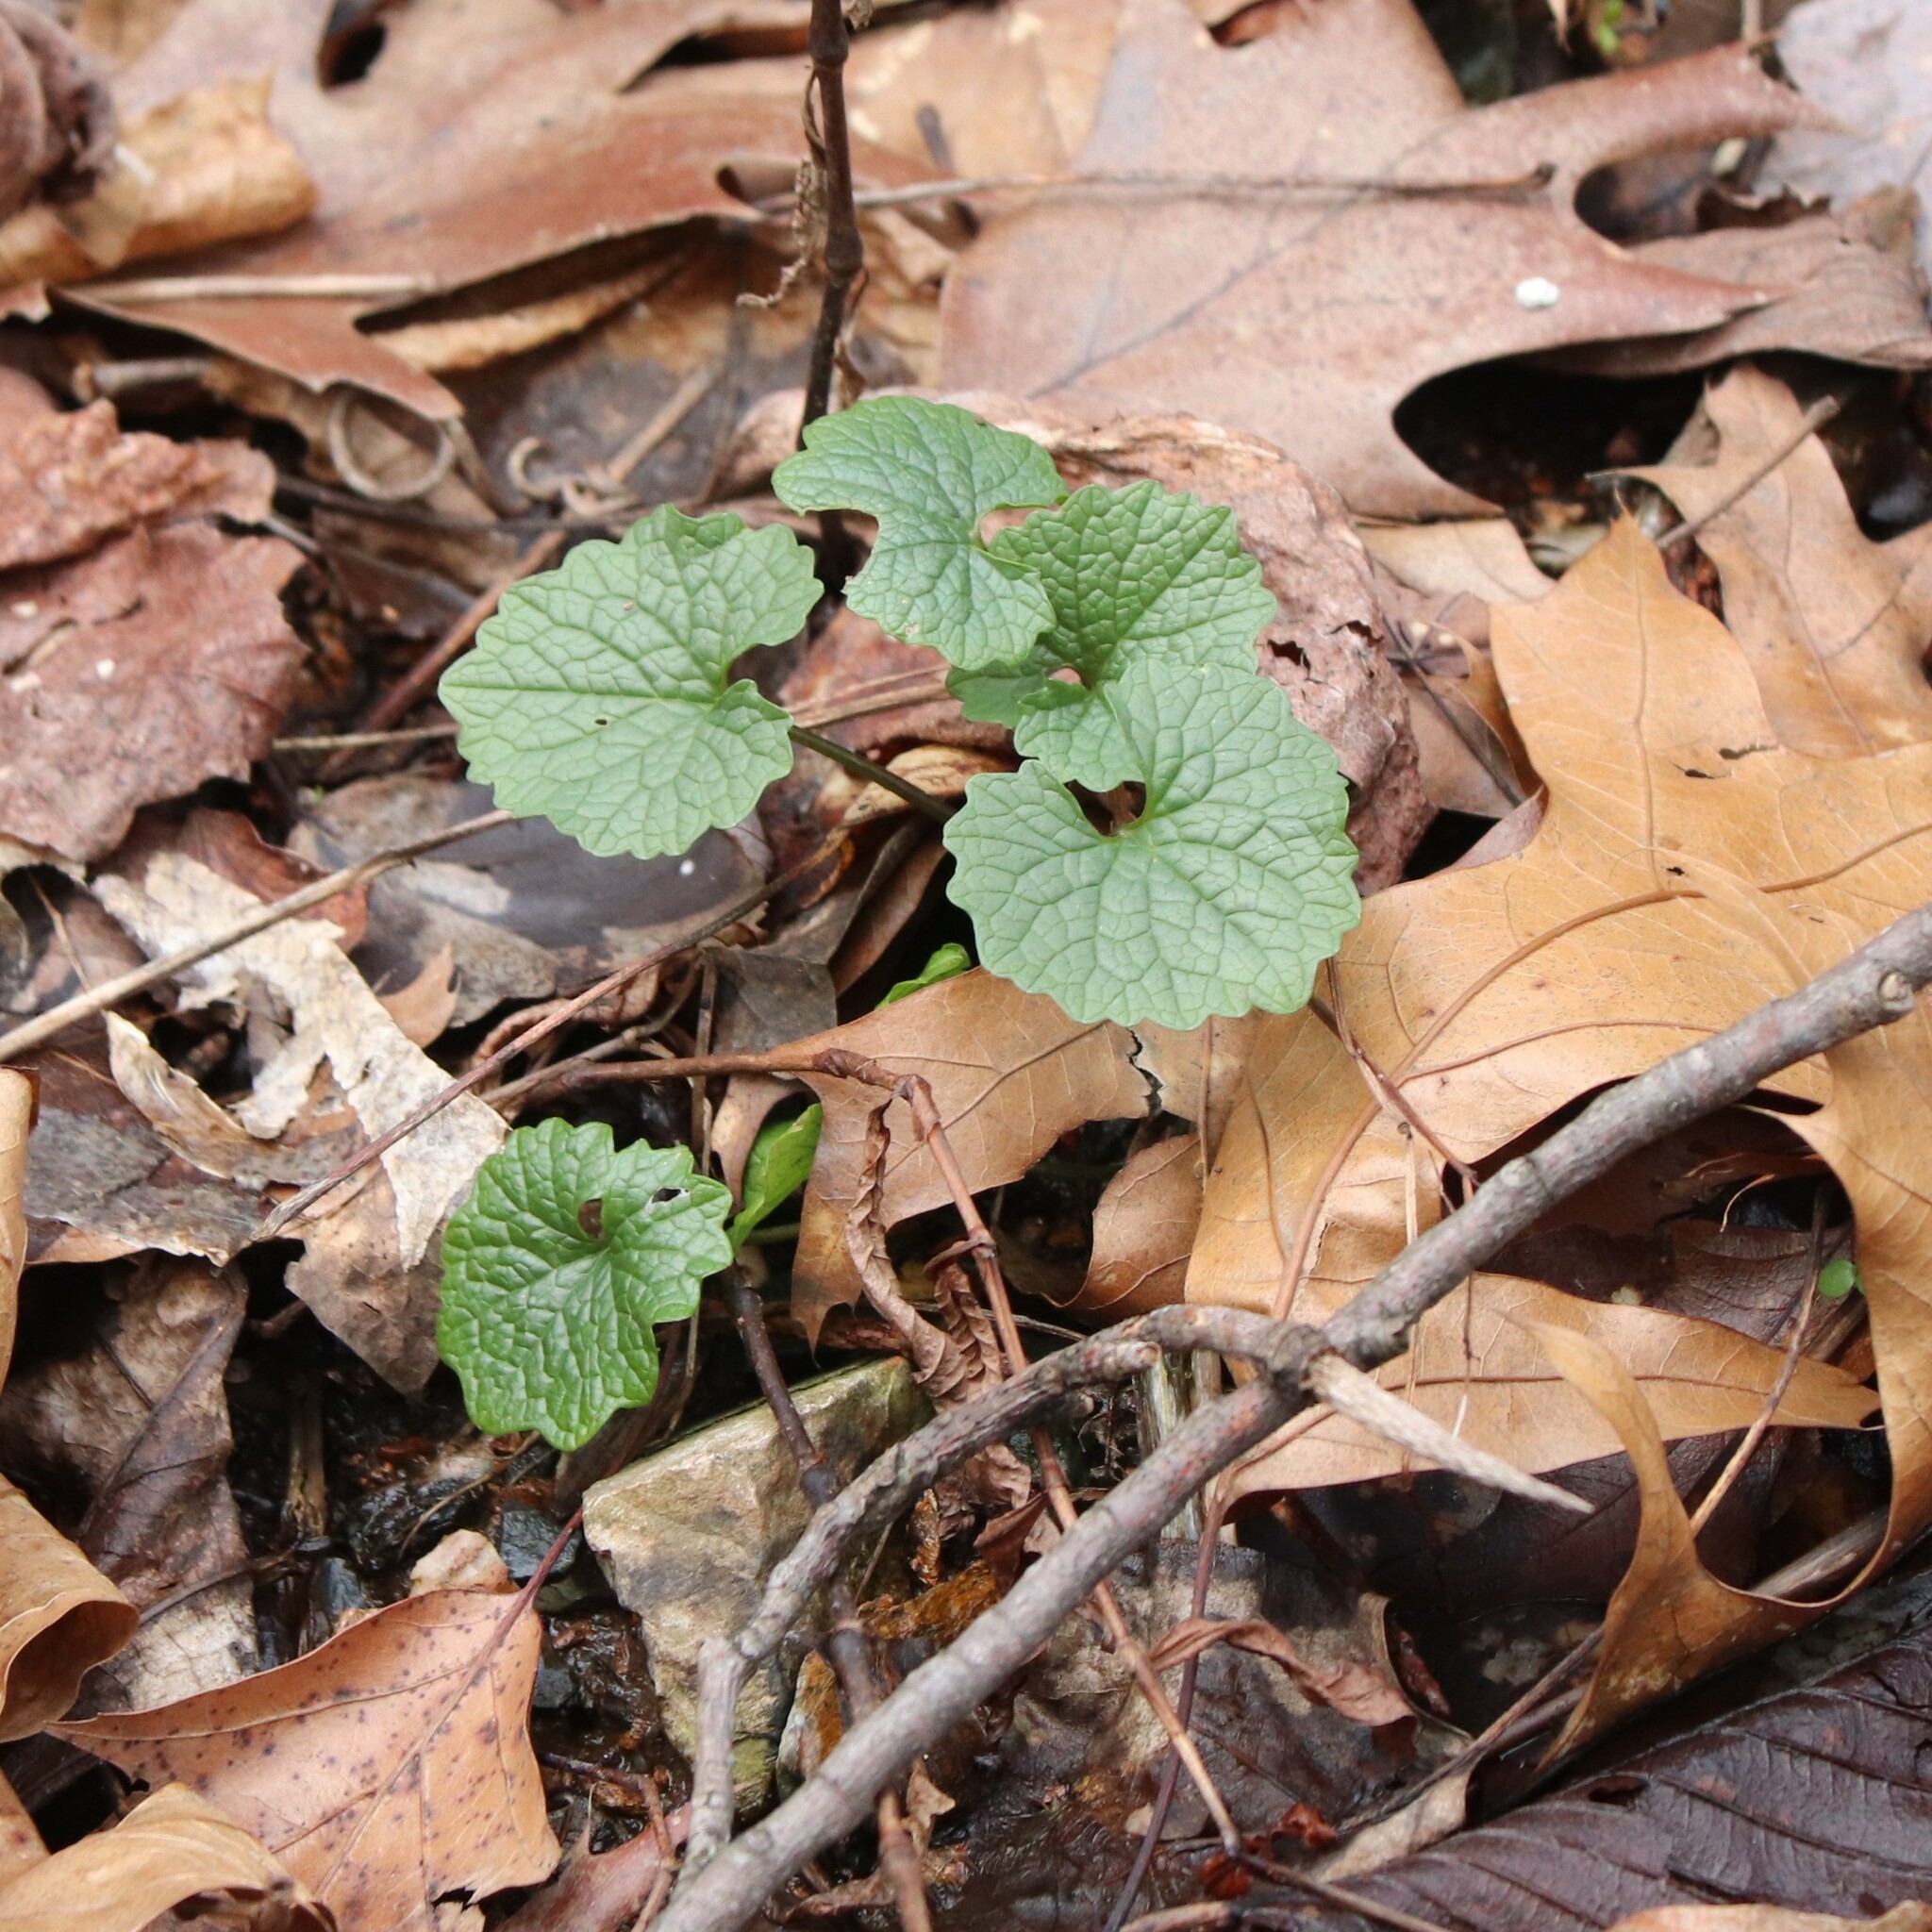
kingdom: Plantae
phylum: Tracheophyta
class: Magnoliopsida
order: Brassicales
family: Brassicaceae
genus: Alliaria
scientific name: Alliaria petiolata
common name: Garlic mustard
